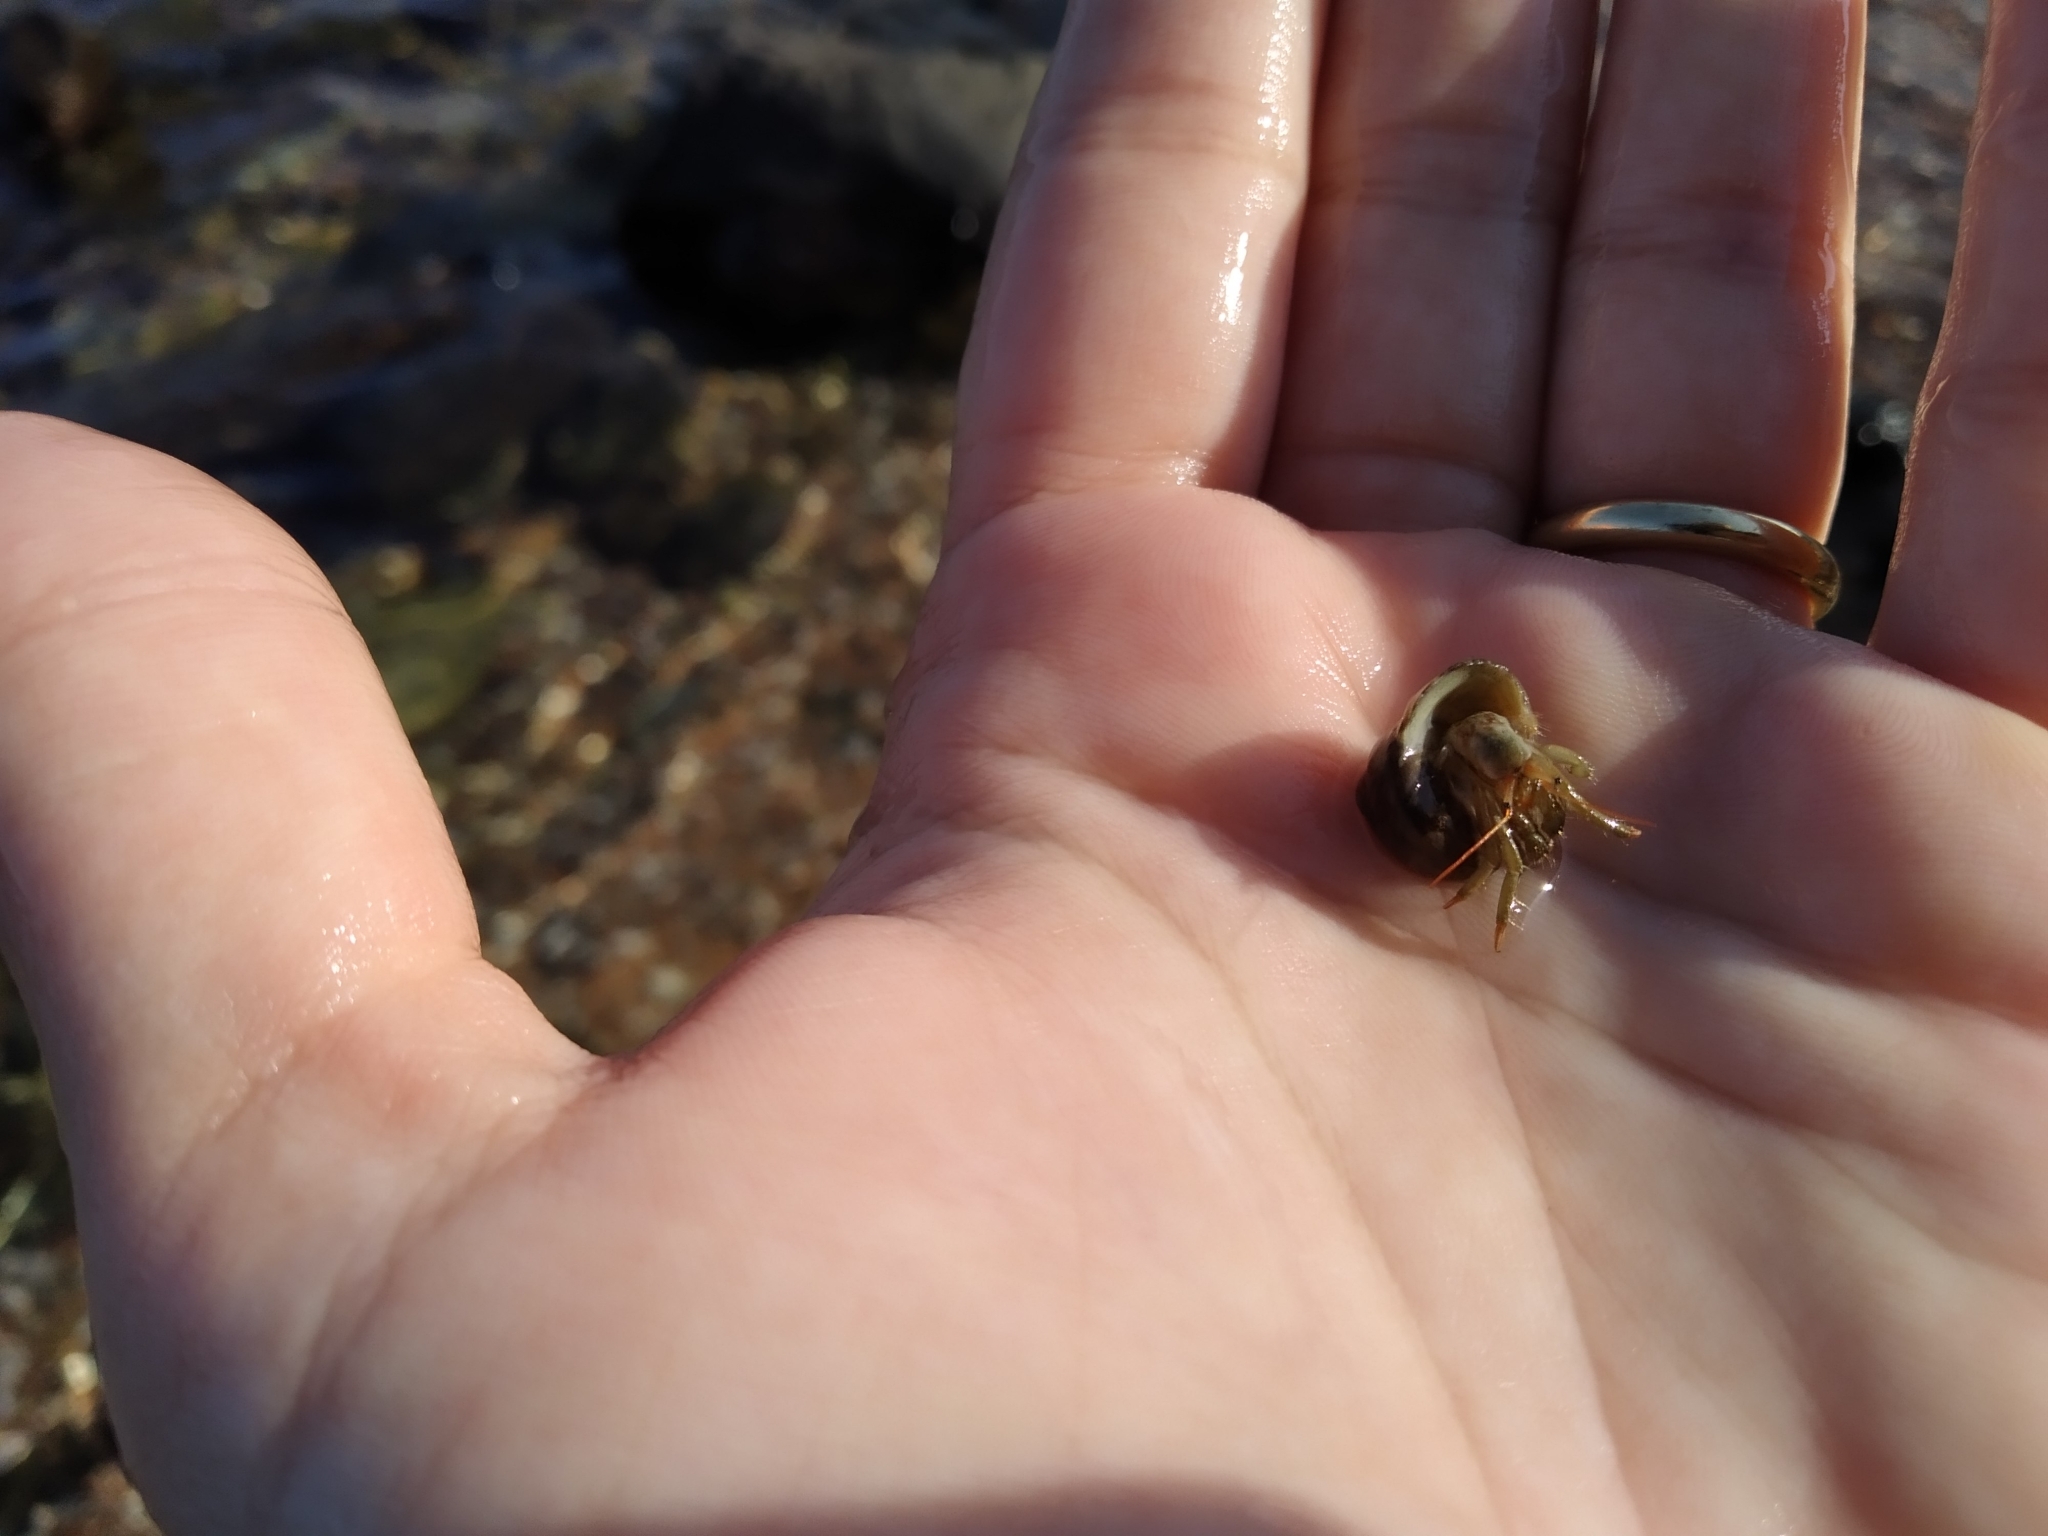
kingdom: Animalia
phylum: Arthropoda
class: Malacostraca
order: Decapoda
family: Diogenidae
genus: Clibanarius
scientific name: Clibanarius erythropus
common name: Hermit crab
